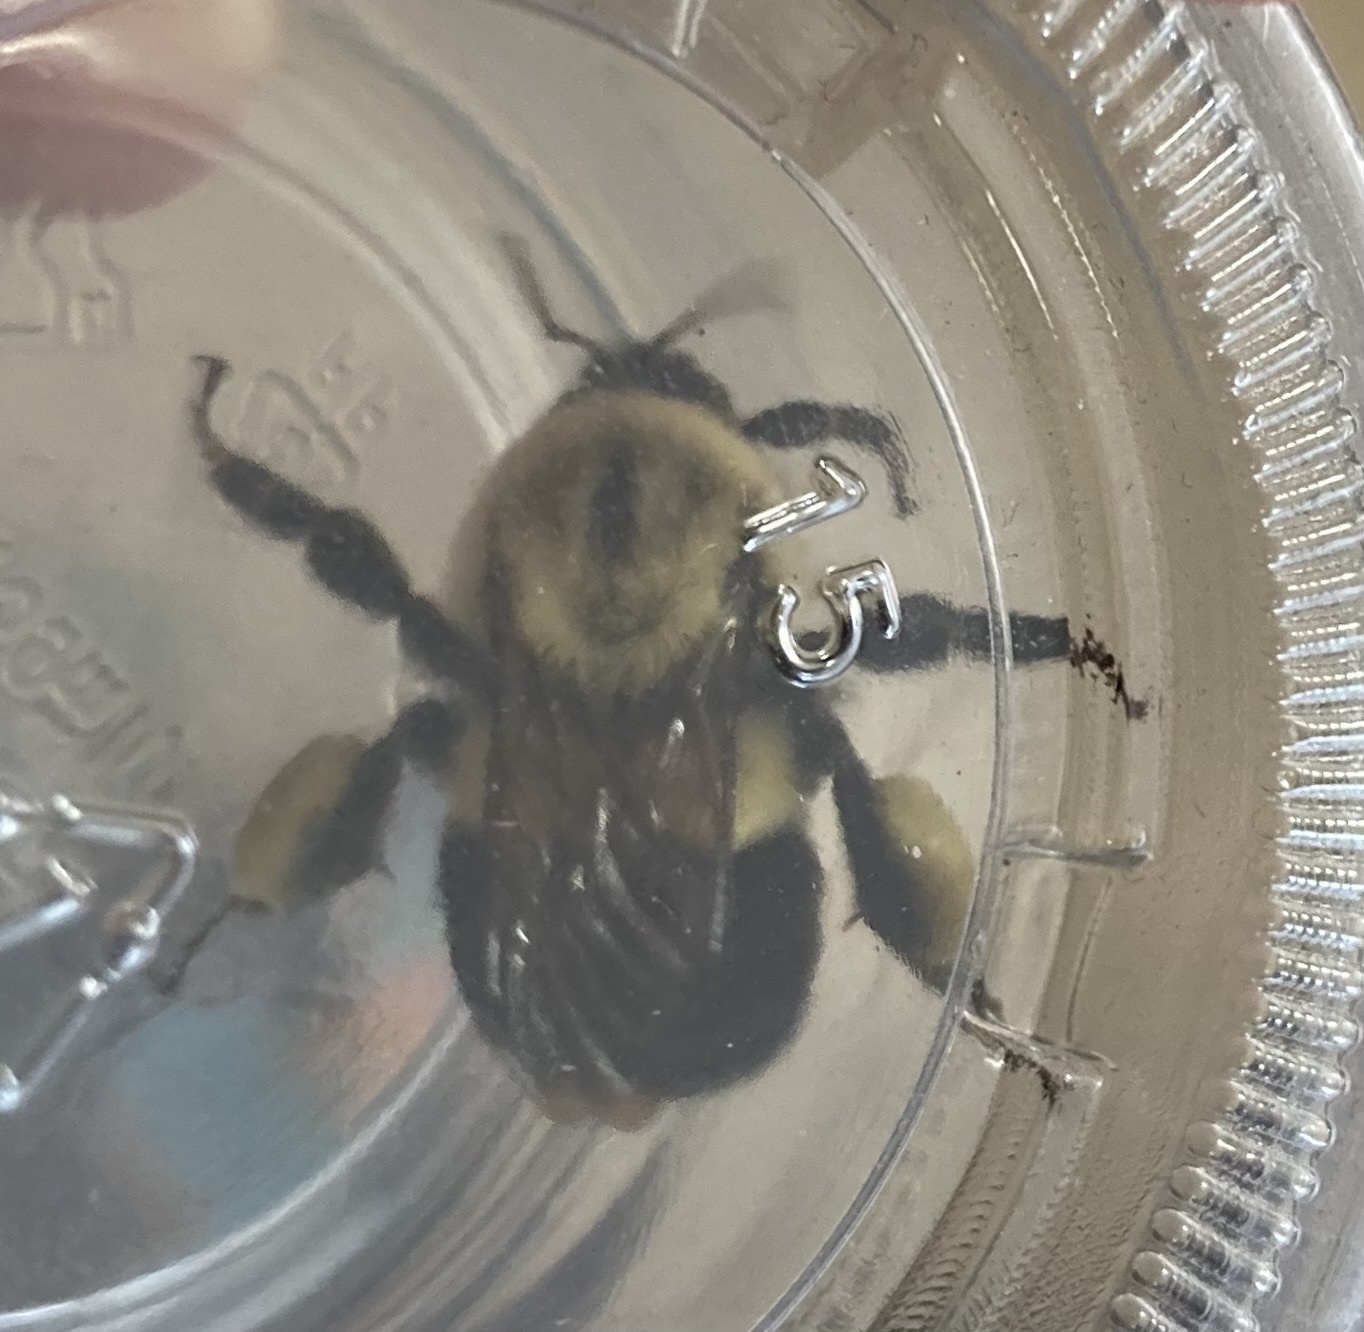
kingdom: Animalia
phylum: Arthropoda
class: Insecta
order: Hymenoptera
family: Apidae
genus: Bombus
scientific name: Bombus impatiens
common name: Common eastern bumble bee
